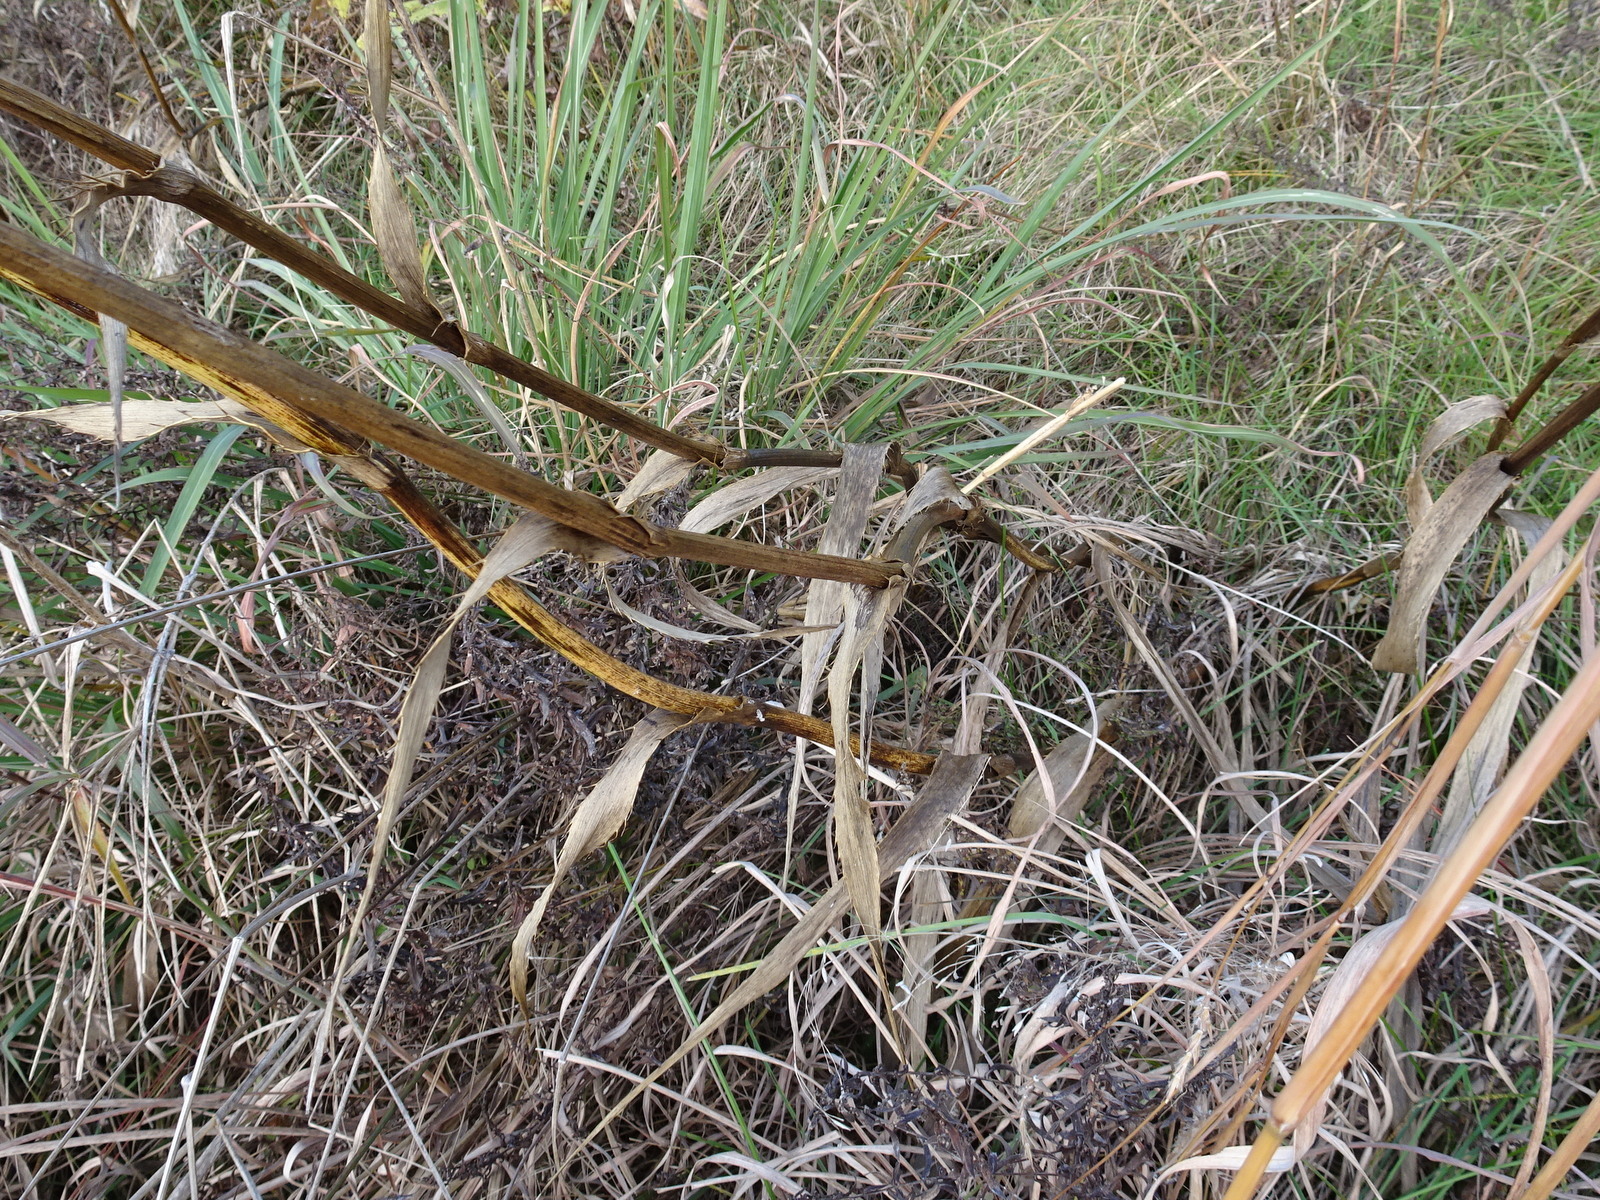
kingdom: Plantae
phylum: Tracheophyta
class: Magnoliopsida
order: Apiales
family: Apiaceae
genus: Eryngium
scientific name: Eryngium yuccifolium
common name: Button eryngo
